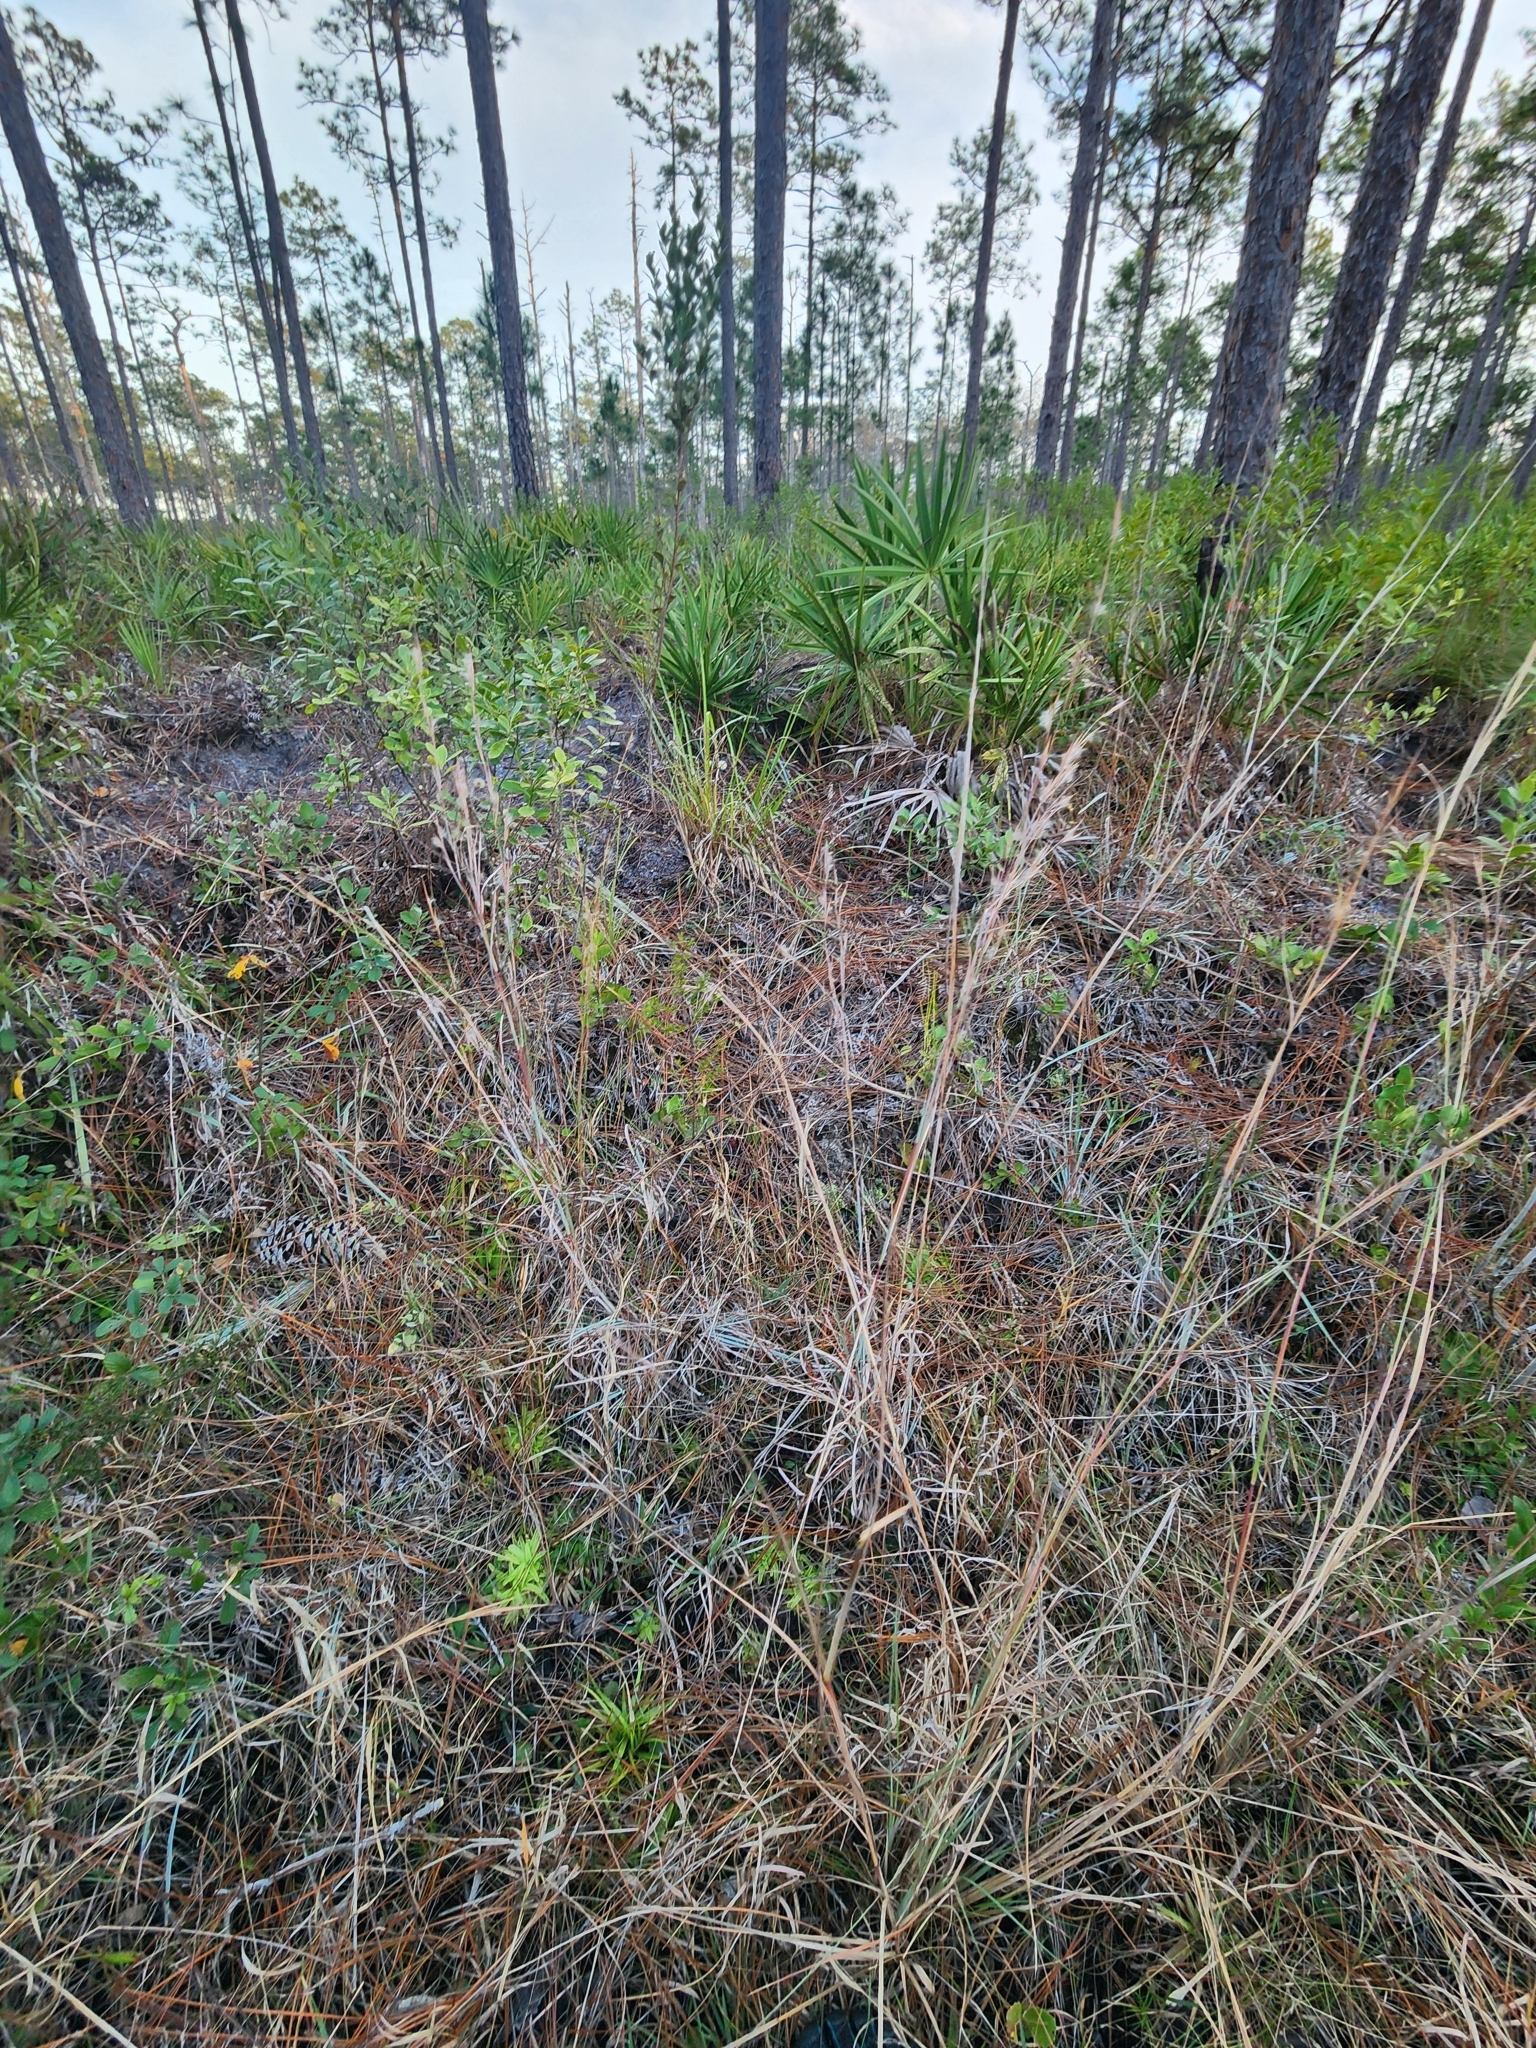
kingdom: Plantae
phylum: Tracheophyta
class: Magnoliopsida
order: Lamiales
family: Lentibulariaceae
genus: Pinguicula
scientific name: Pinguicula caerulea
